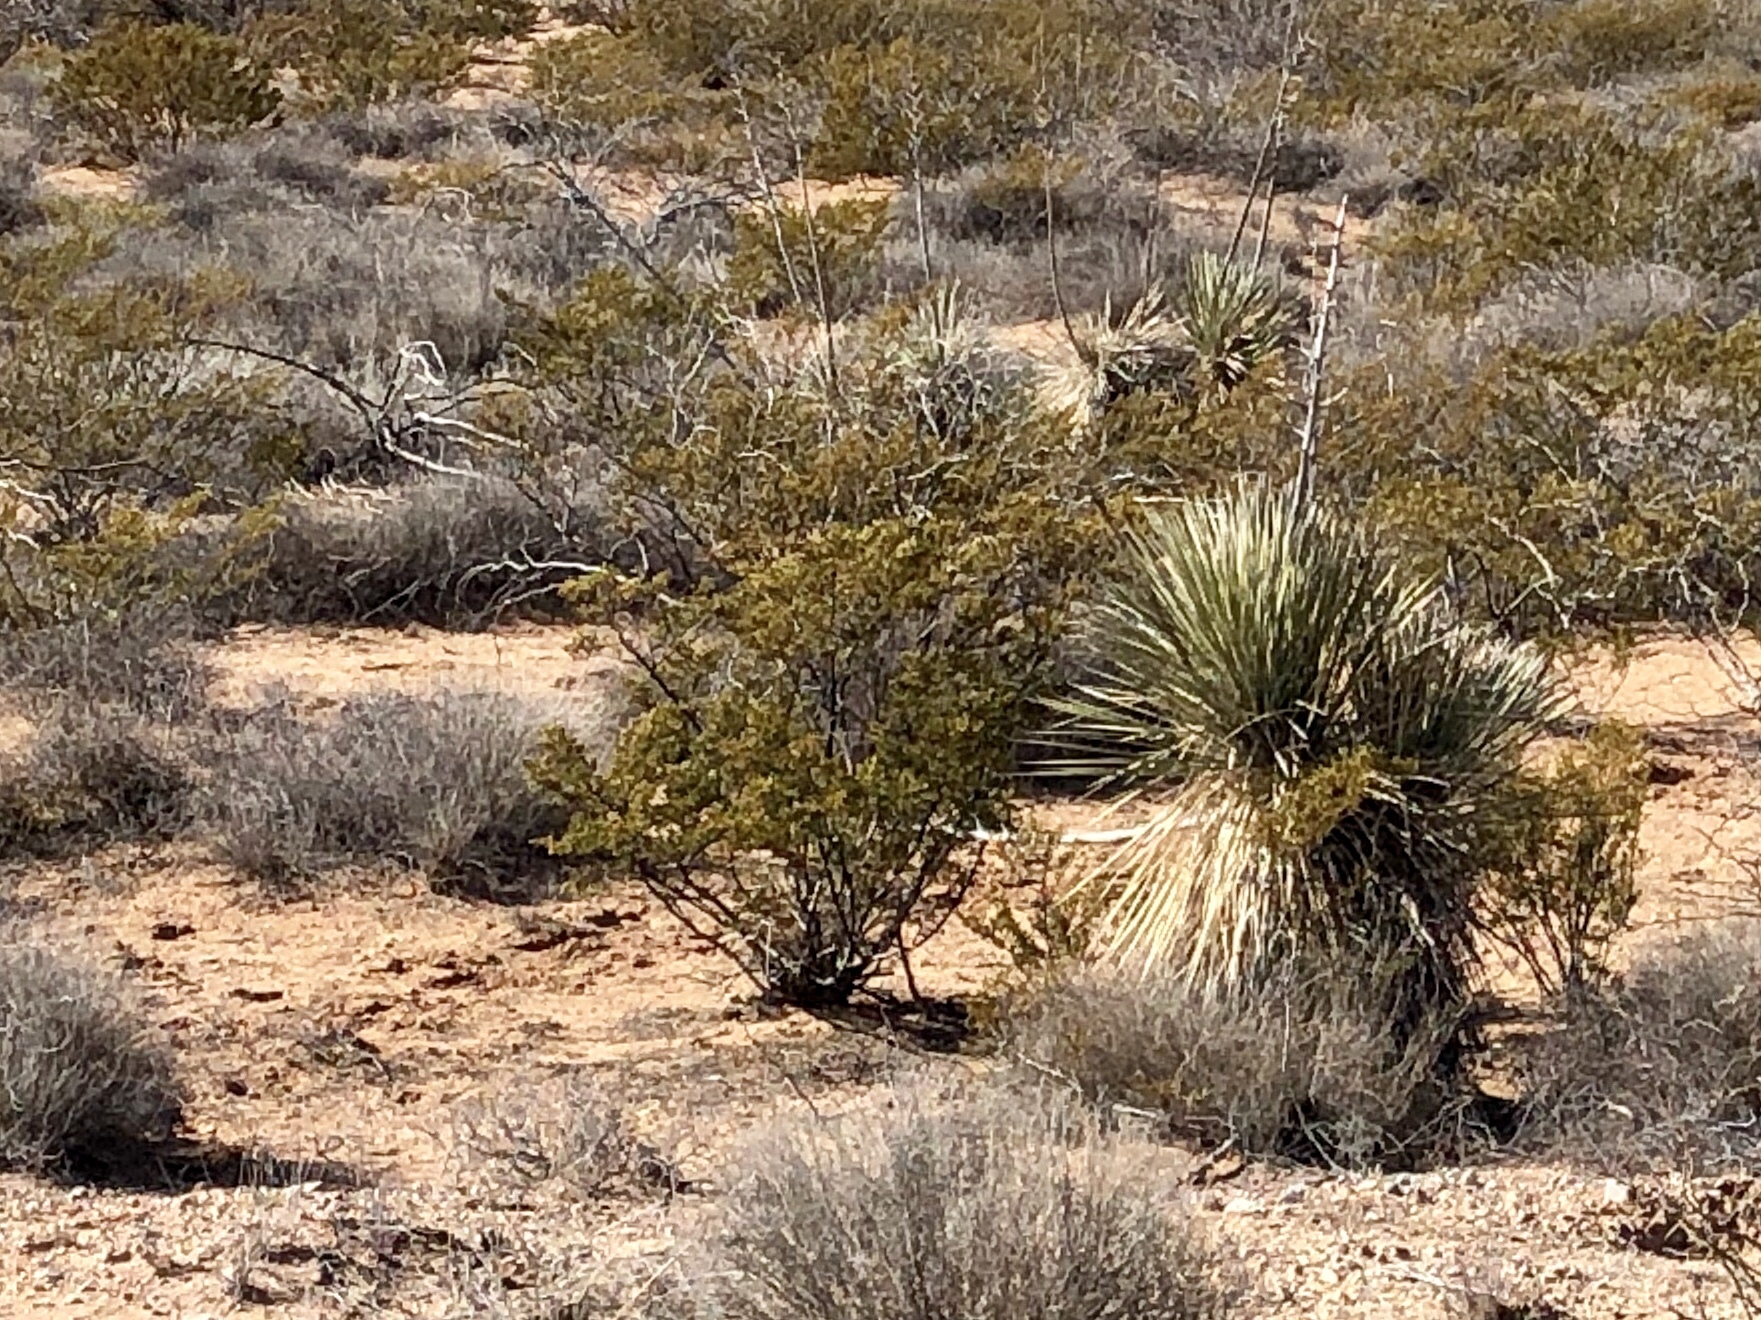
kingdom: Plantae
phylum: Tracheophyta
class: Magnoliopsida
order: Zygophyllales
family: Zygophyllaceae
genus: Larrea
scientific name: Larrea tridentata
